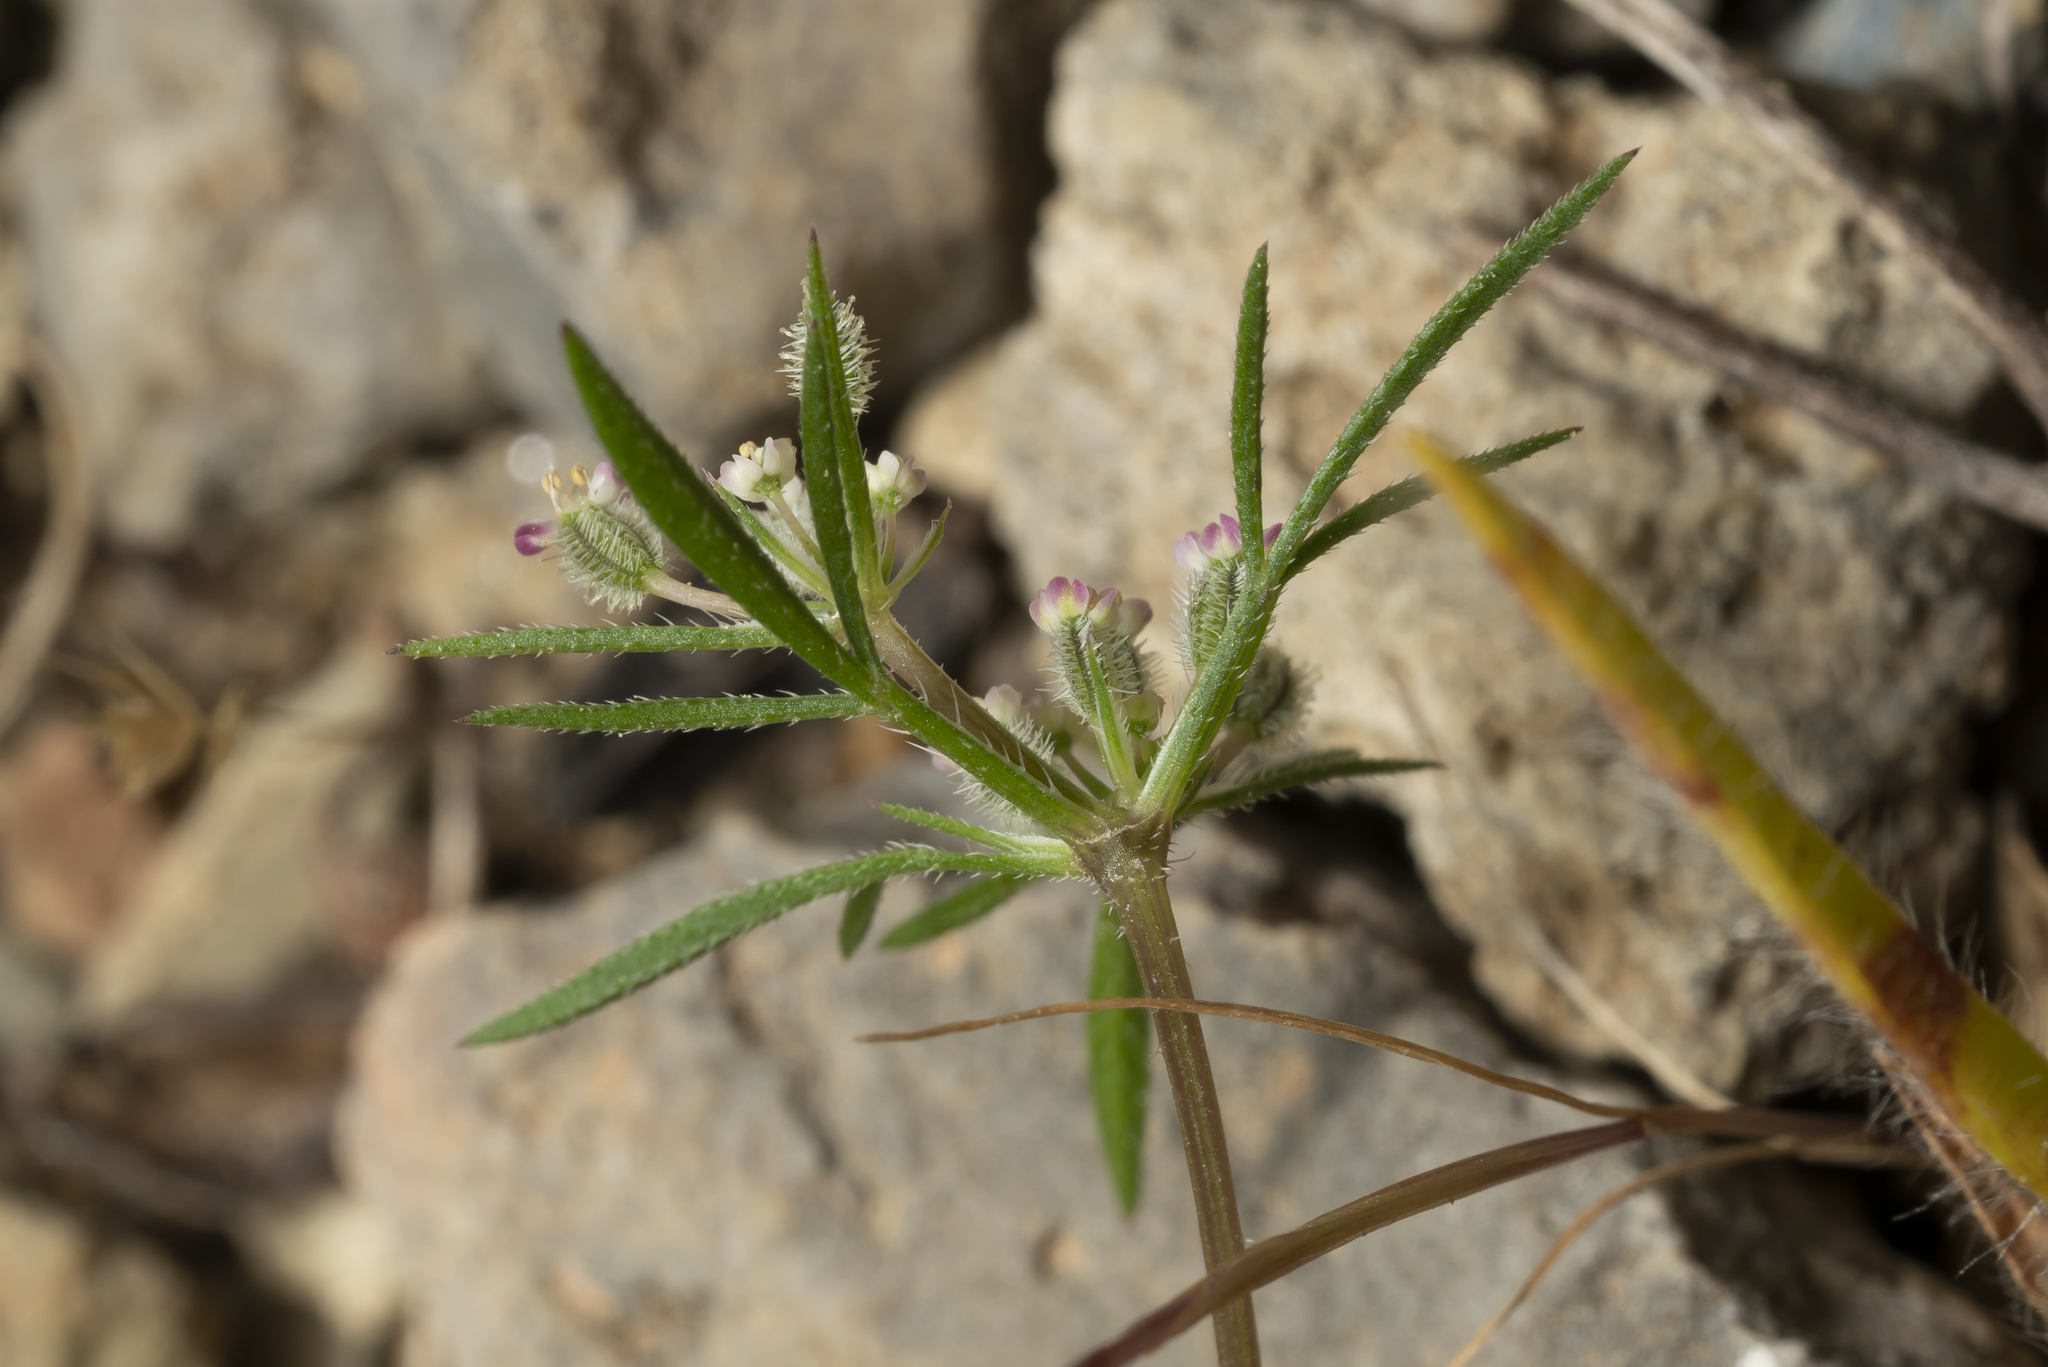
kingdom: Plantae
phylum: Tracheophyta
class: Magnoliopsida
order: Apiales
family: Apiaceae
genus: Daucus
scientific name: Daucus involucratus
